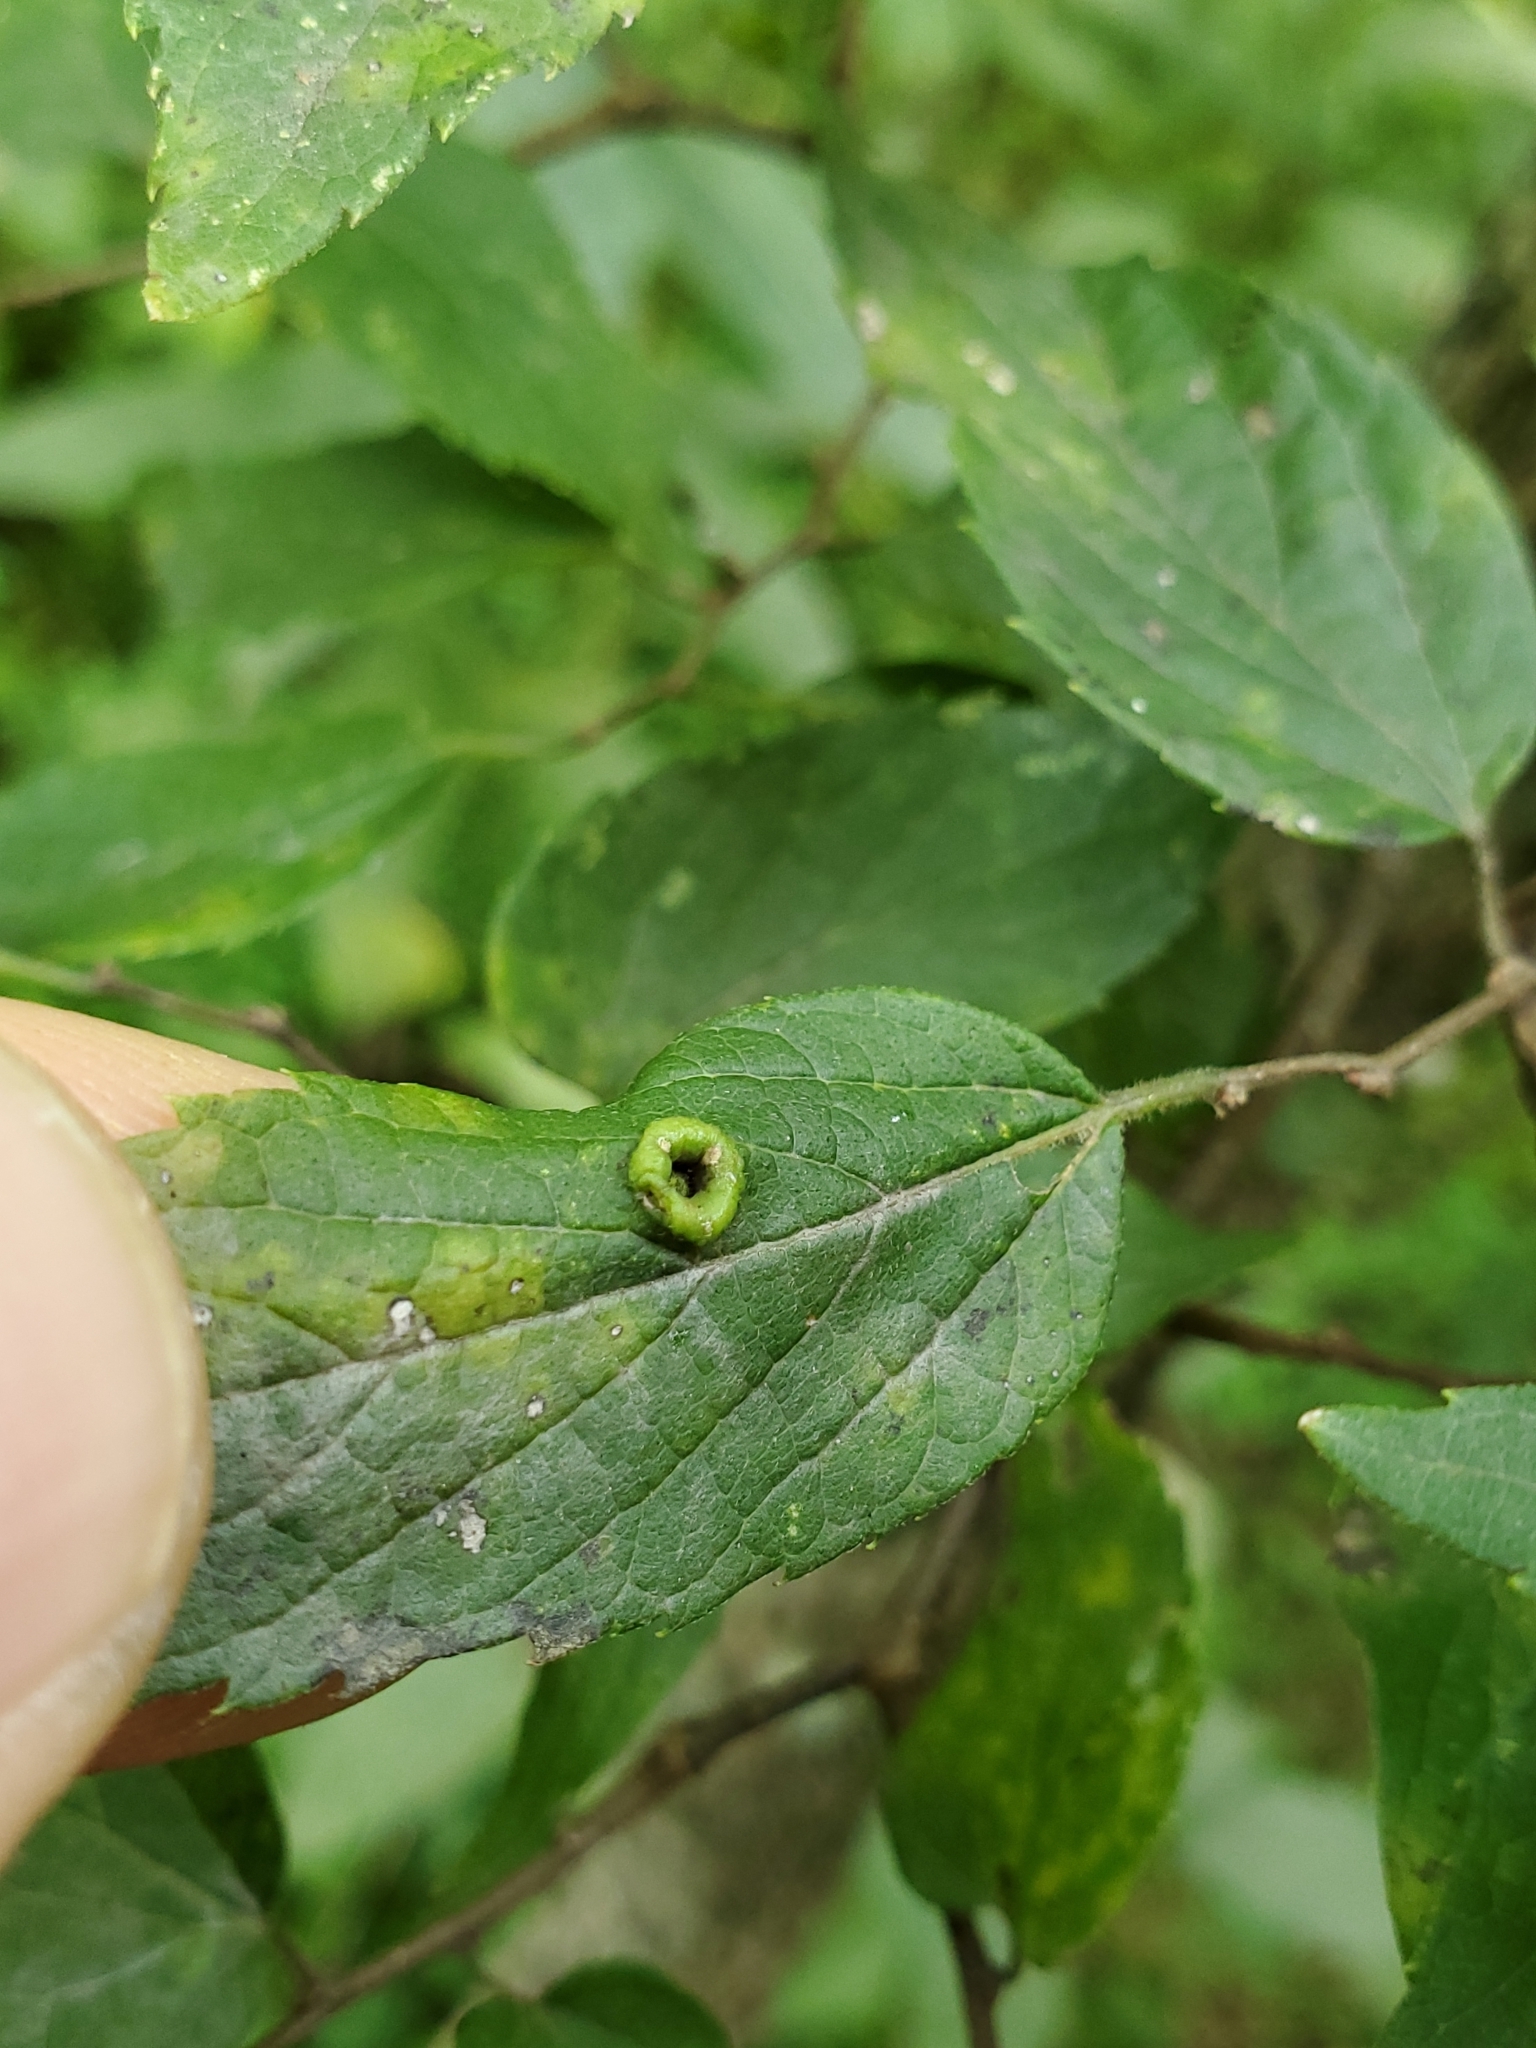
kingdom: Animalia
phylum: Arthropoda
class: Insecta
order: Hemiptera
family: Aphalaridae
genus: Pachypsylla
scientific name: Pachypsylla celtidismamma
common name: Hackberry nipplegall psyllid
